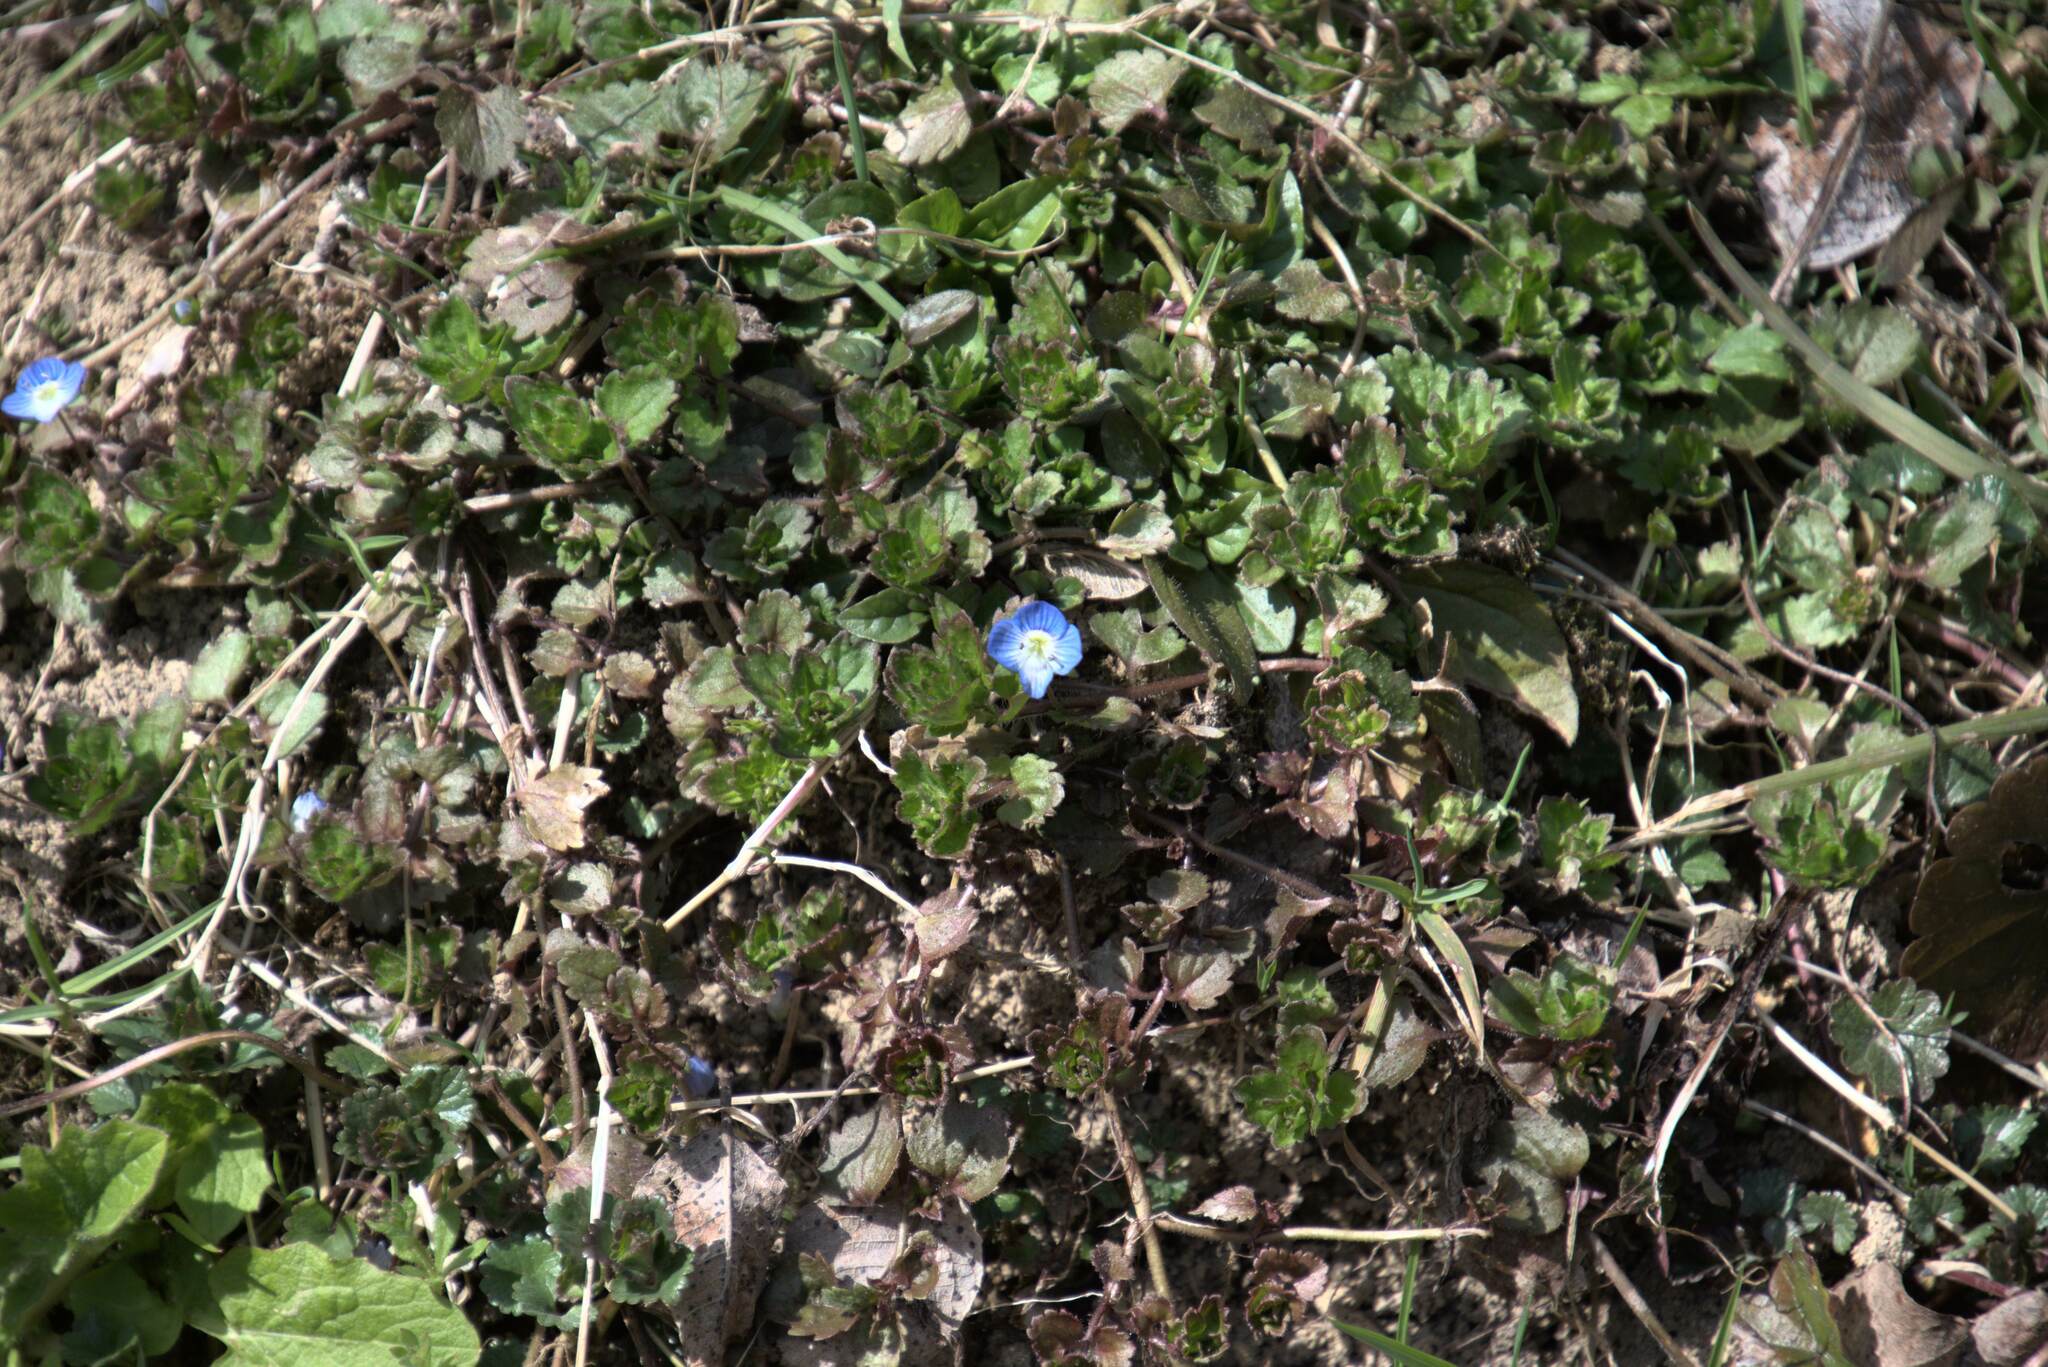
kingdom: Plantae
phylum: Tracheophyta
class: Magnoliopsida
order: Lamiales
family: Plantaginaceae
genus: Veronica
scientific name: Veronica persica
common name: Common field-speedwell
